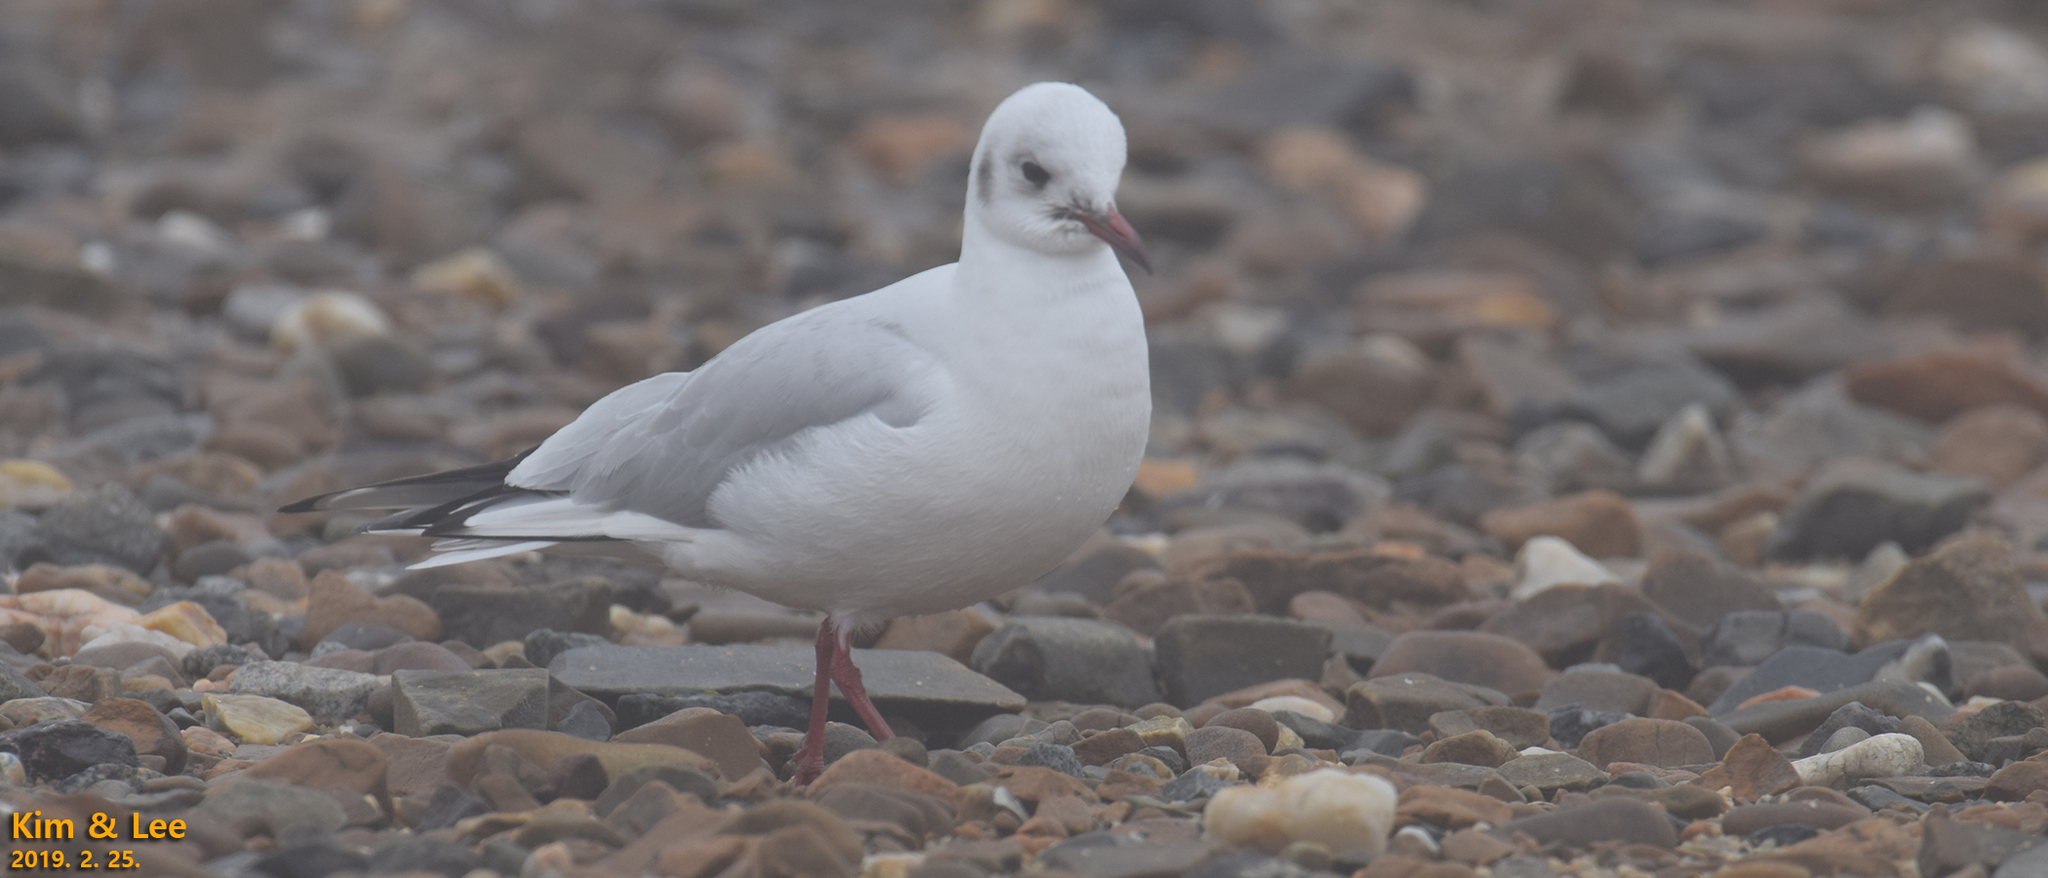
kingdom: Animalia
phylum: Chordata
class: Aves
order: Charadriiformes
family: Laridae
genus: Chroicocephalus
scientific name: Chroicocephalus ridibundus
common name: Black-headed gull
